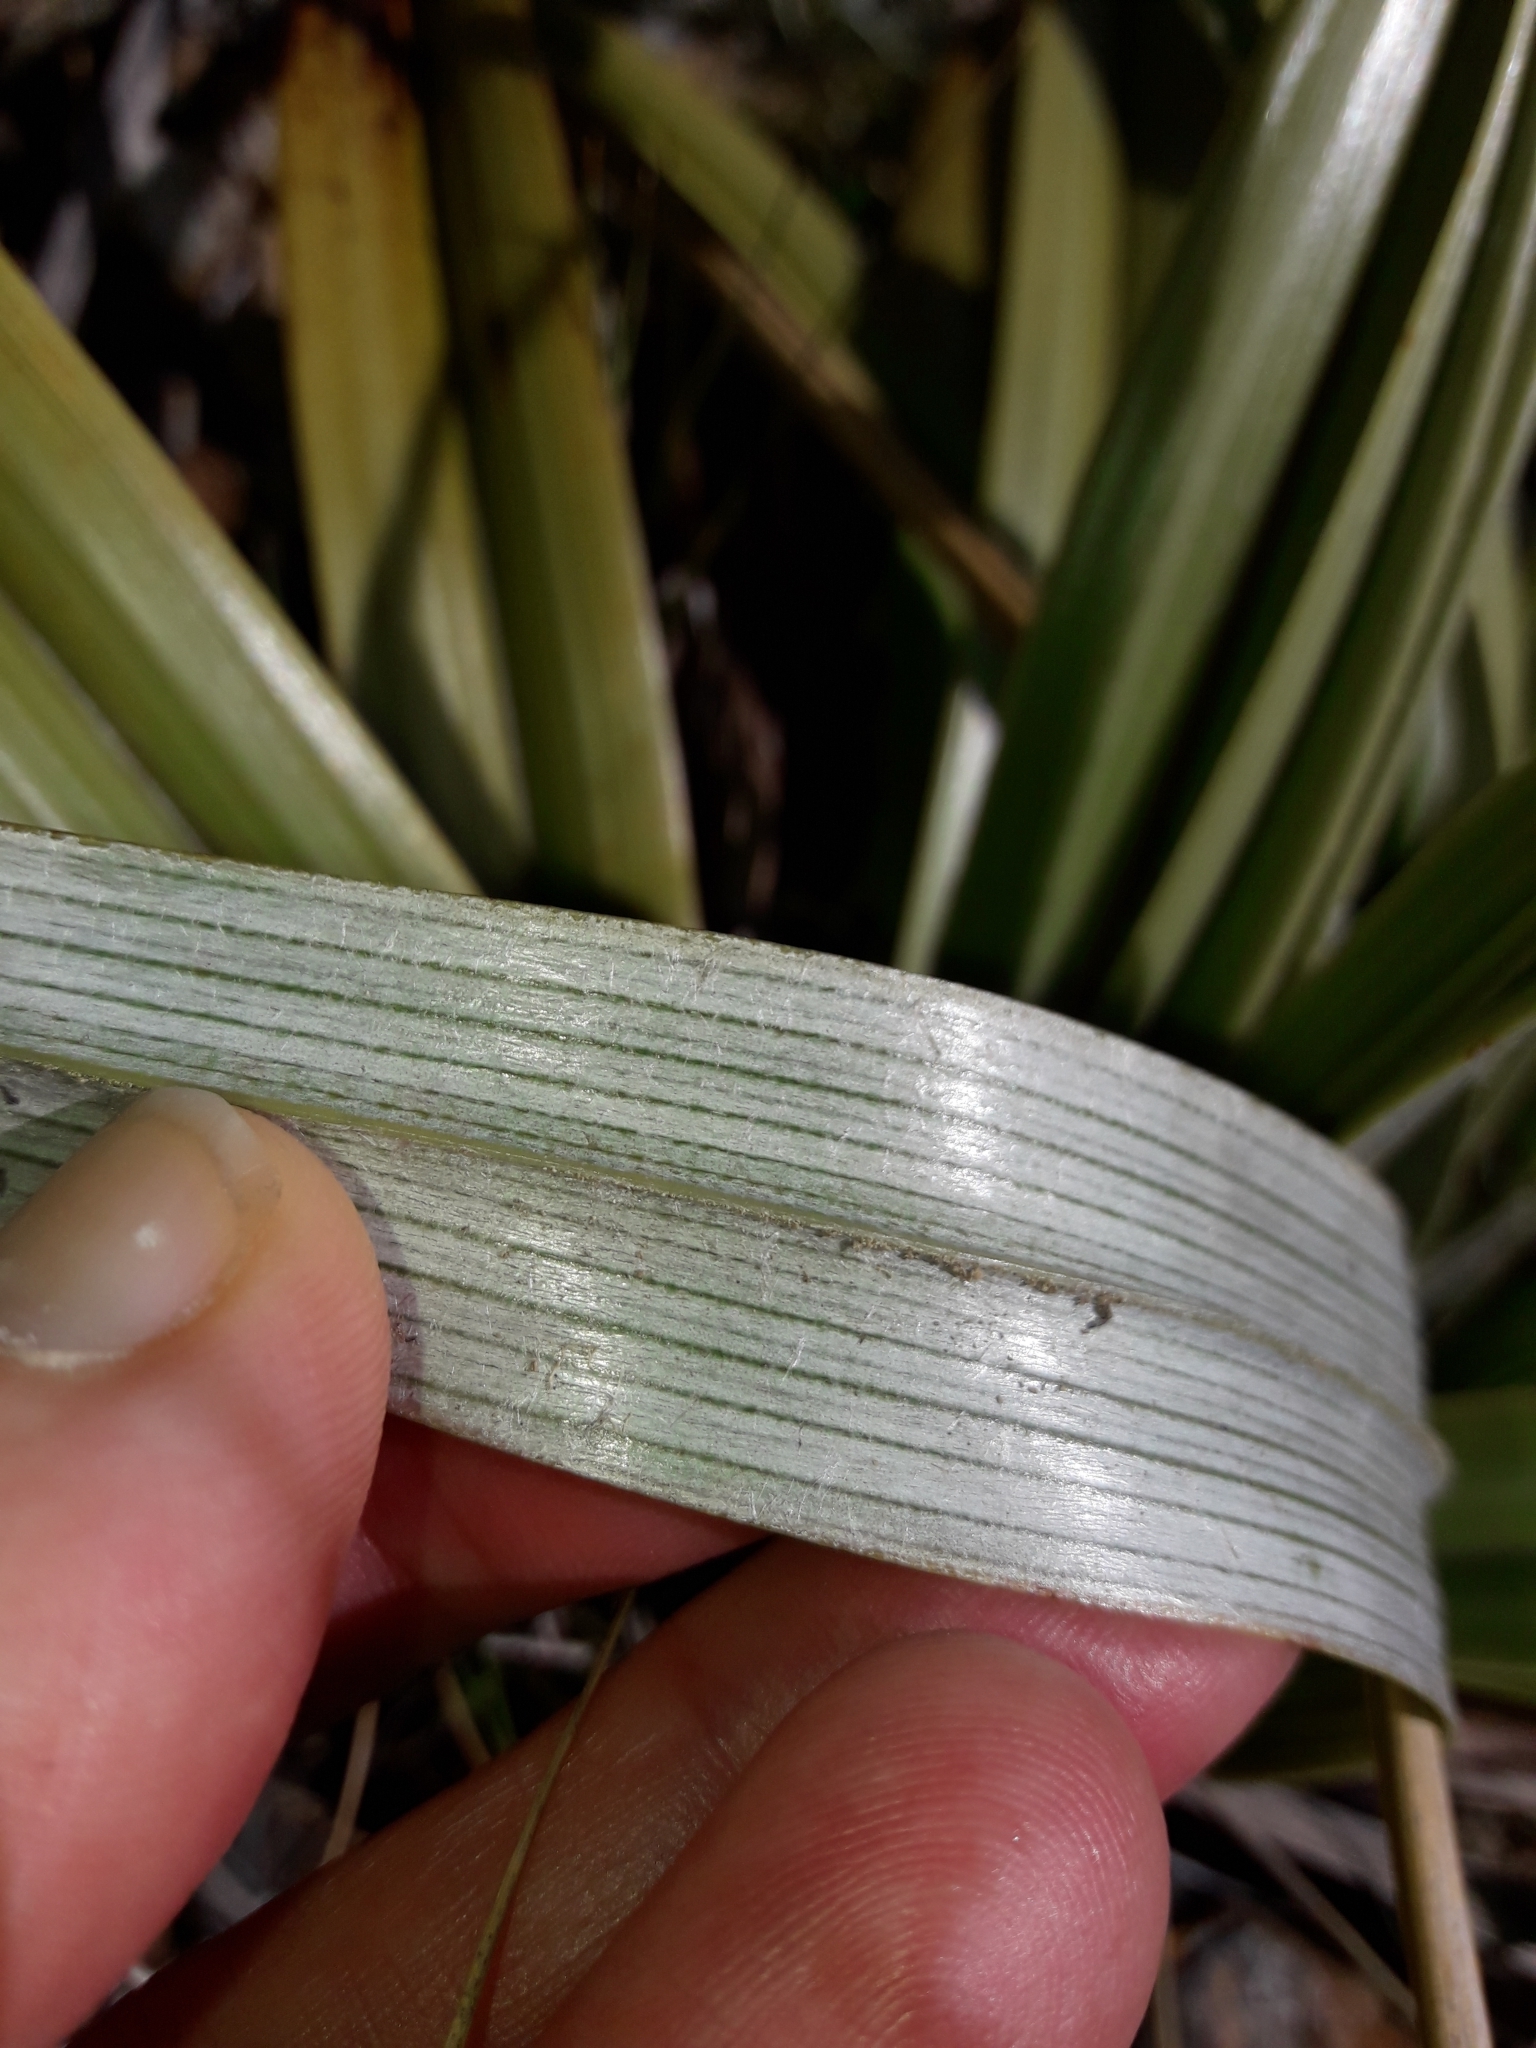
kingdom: Plantae
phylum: Tracheophyta
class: Liliopsida
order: Asparagales
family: Asteliaceae
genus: Astelia
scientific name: Astelia petriei
